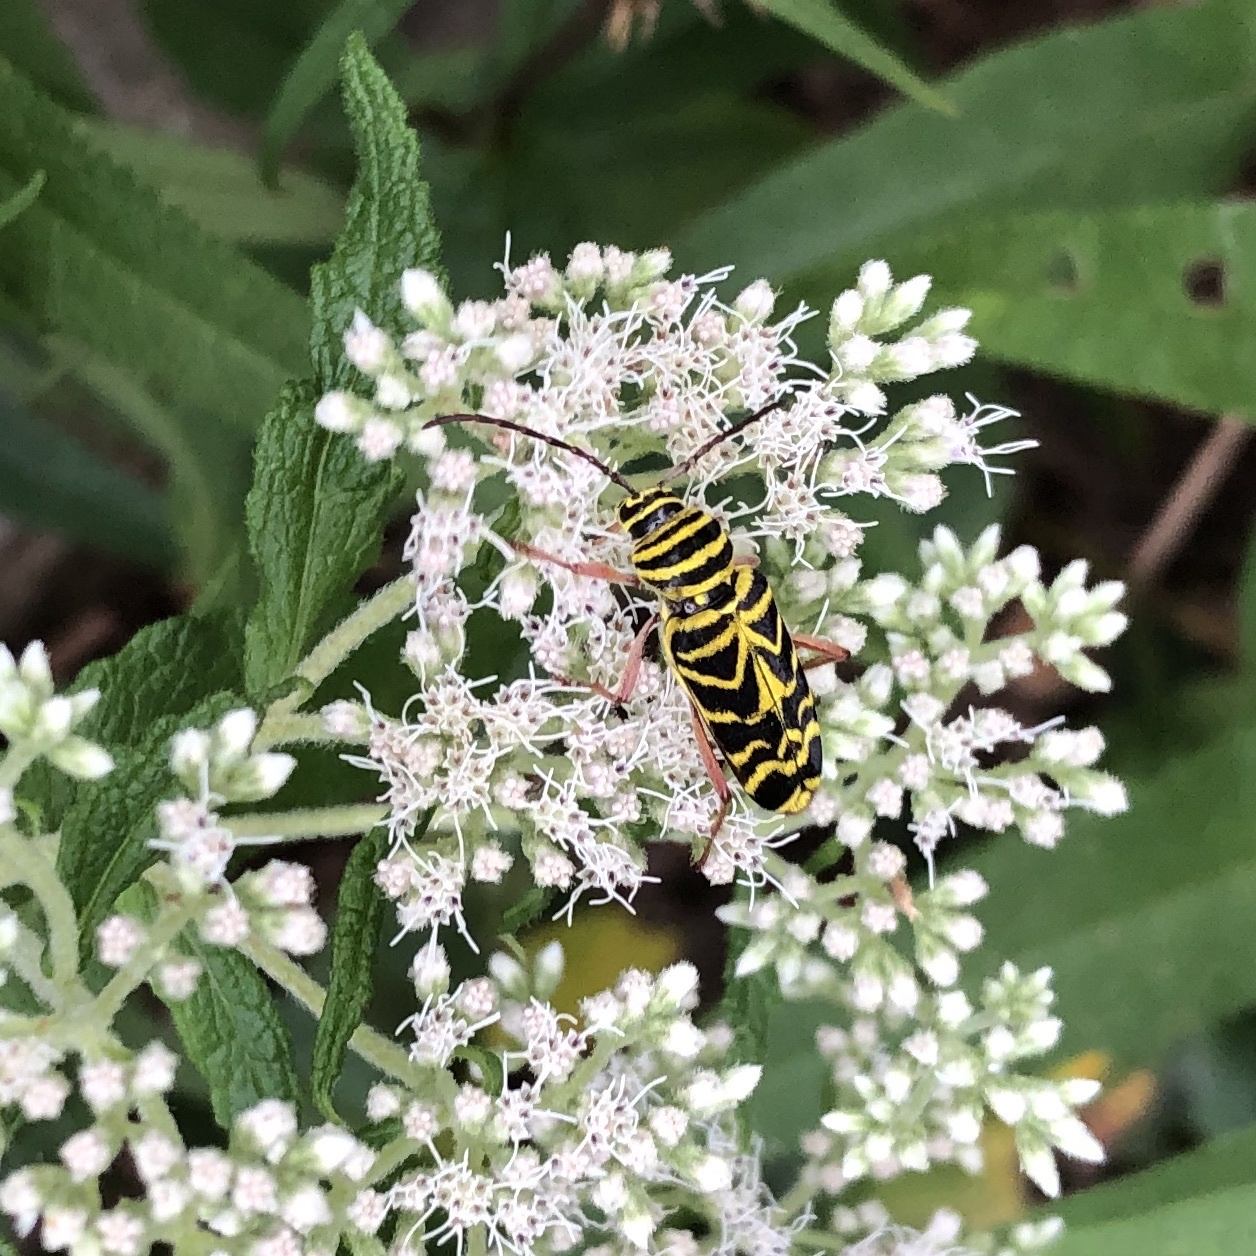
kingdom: Animalia
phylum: Arthropoda
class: Insecta
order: Coleoptera
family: Cerambycidae
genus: Megacyllene
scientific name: Megacyllene robiniae
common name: Locust borer
